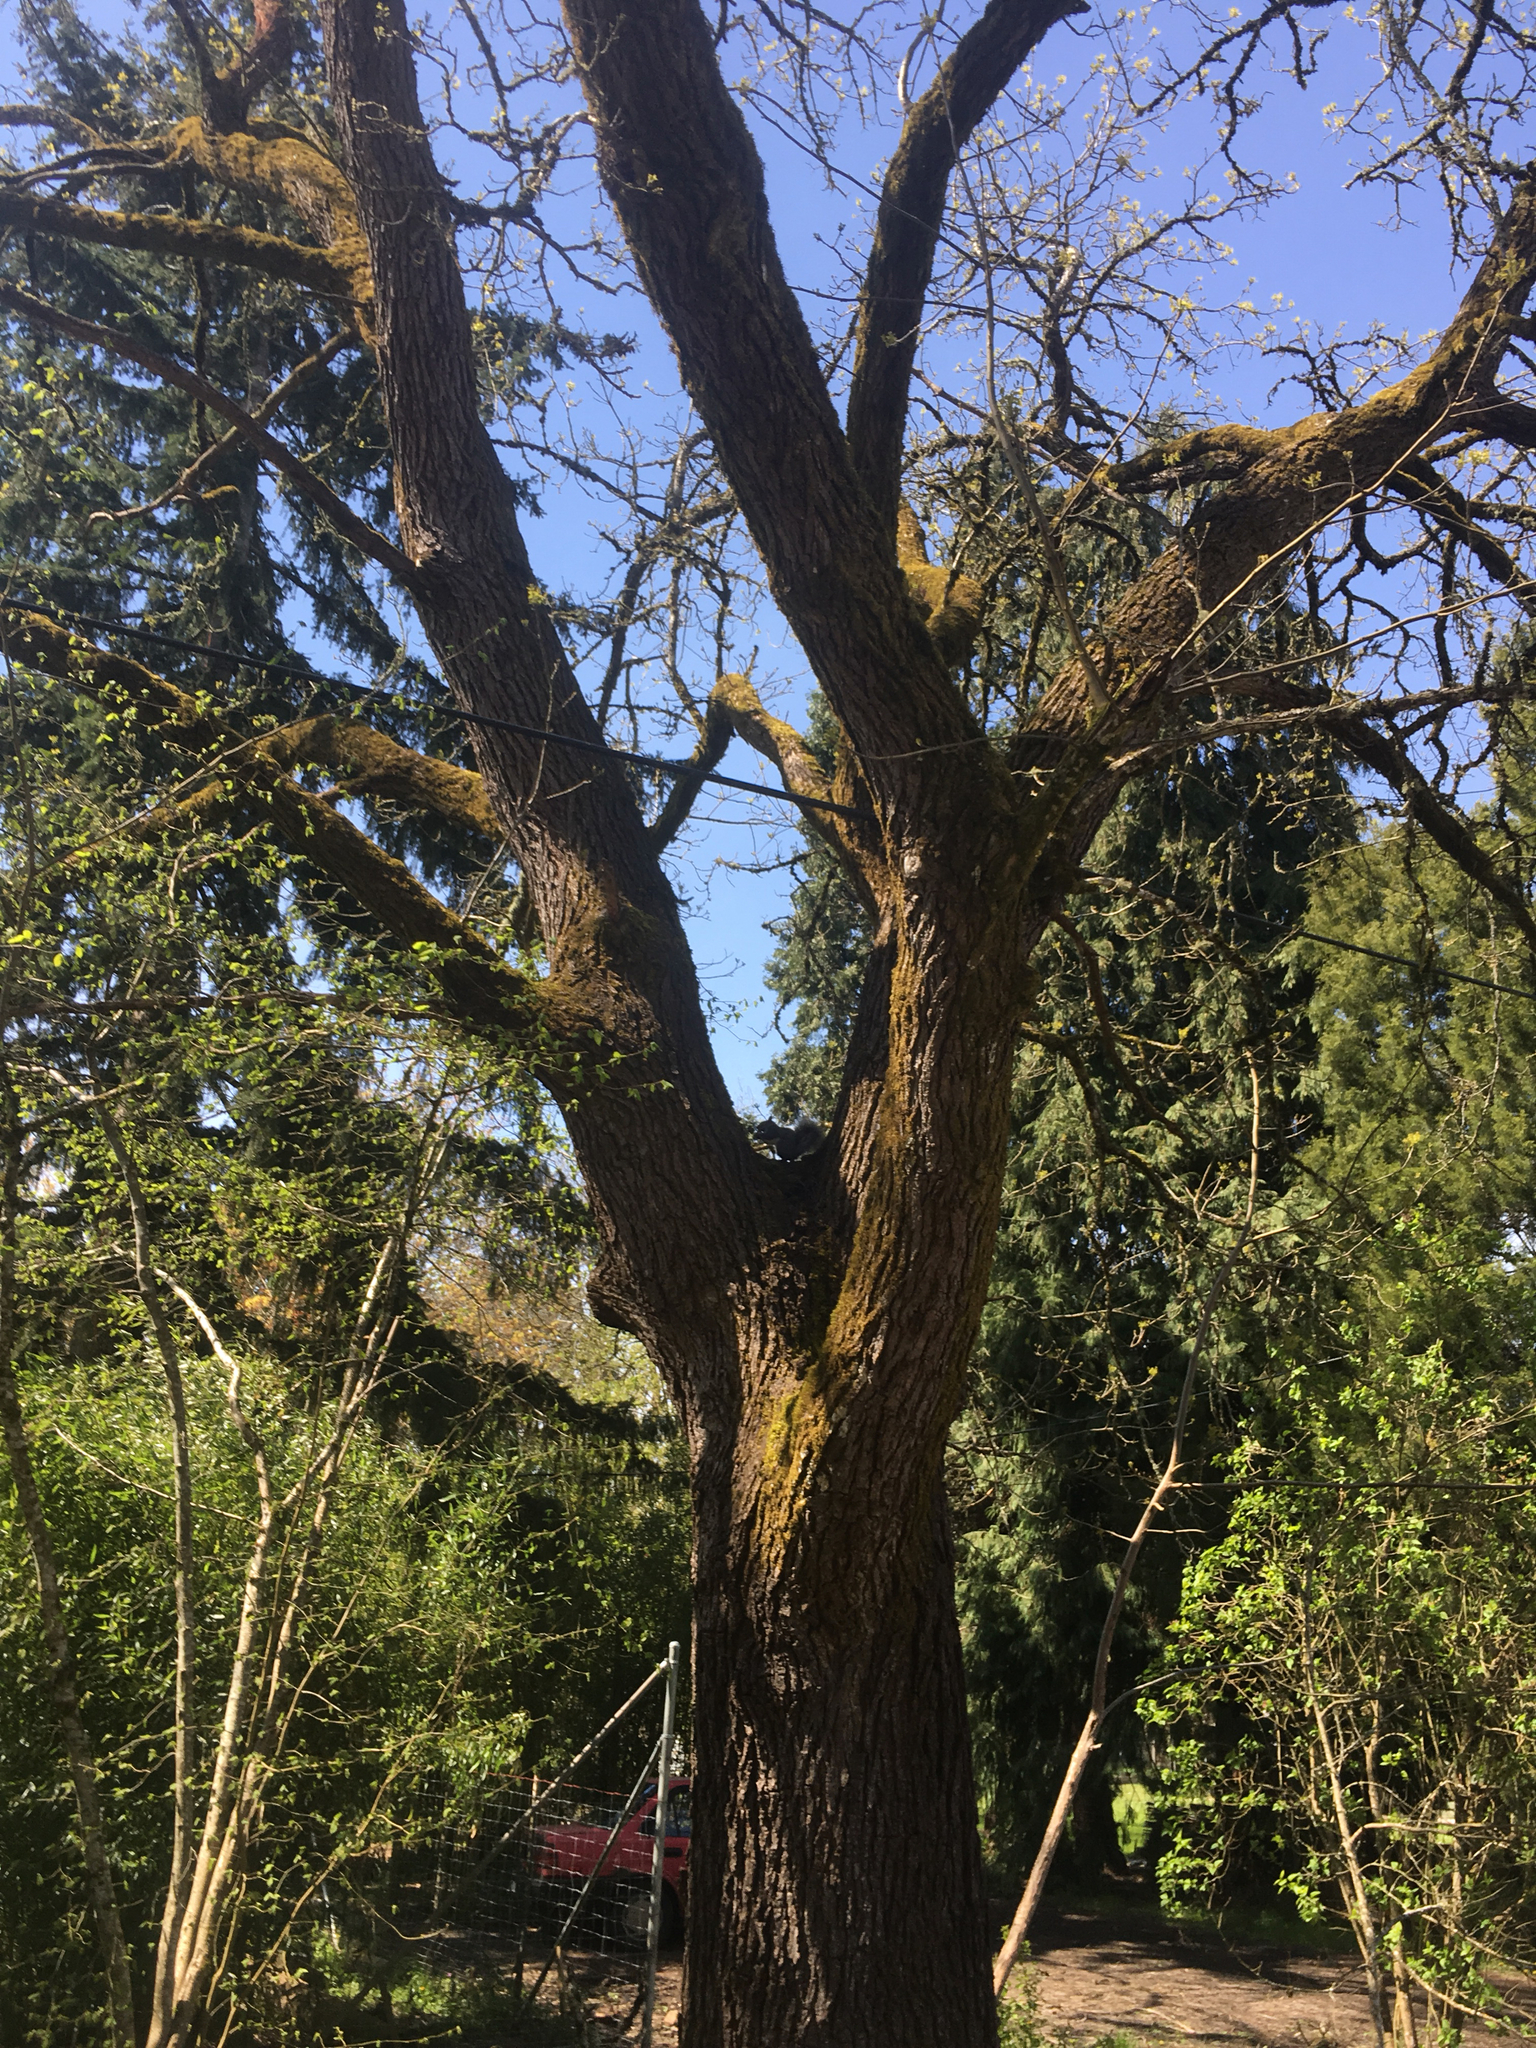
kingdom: Animalia
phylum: Chordata
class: Mammalia
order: Rodentia
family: Sciuridae
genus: Sciurus
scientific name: Sciurus griseus
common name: Western gray squirrel
